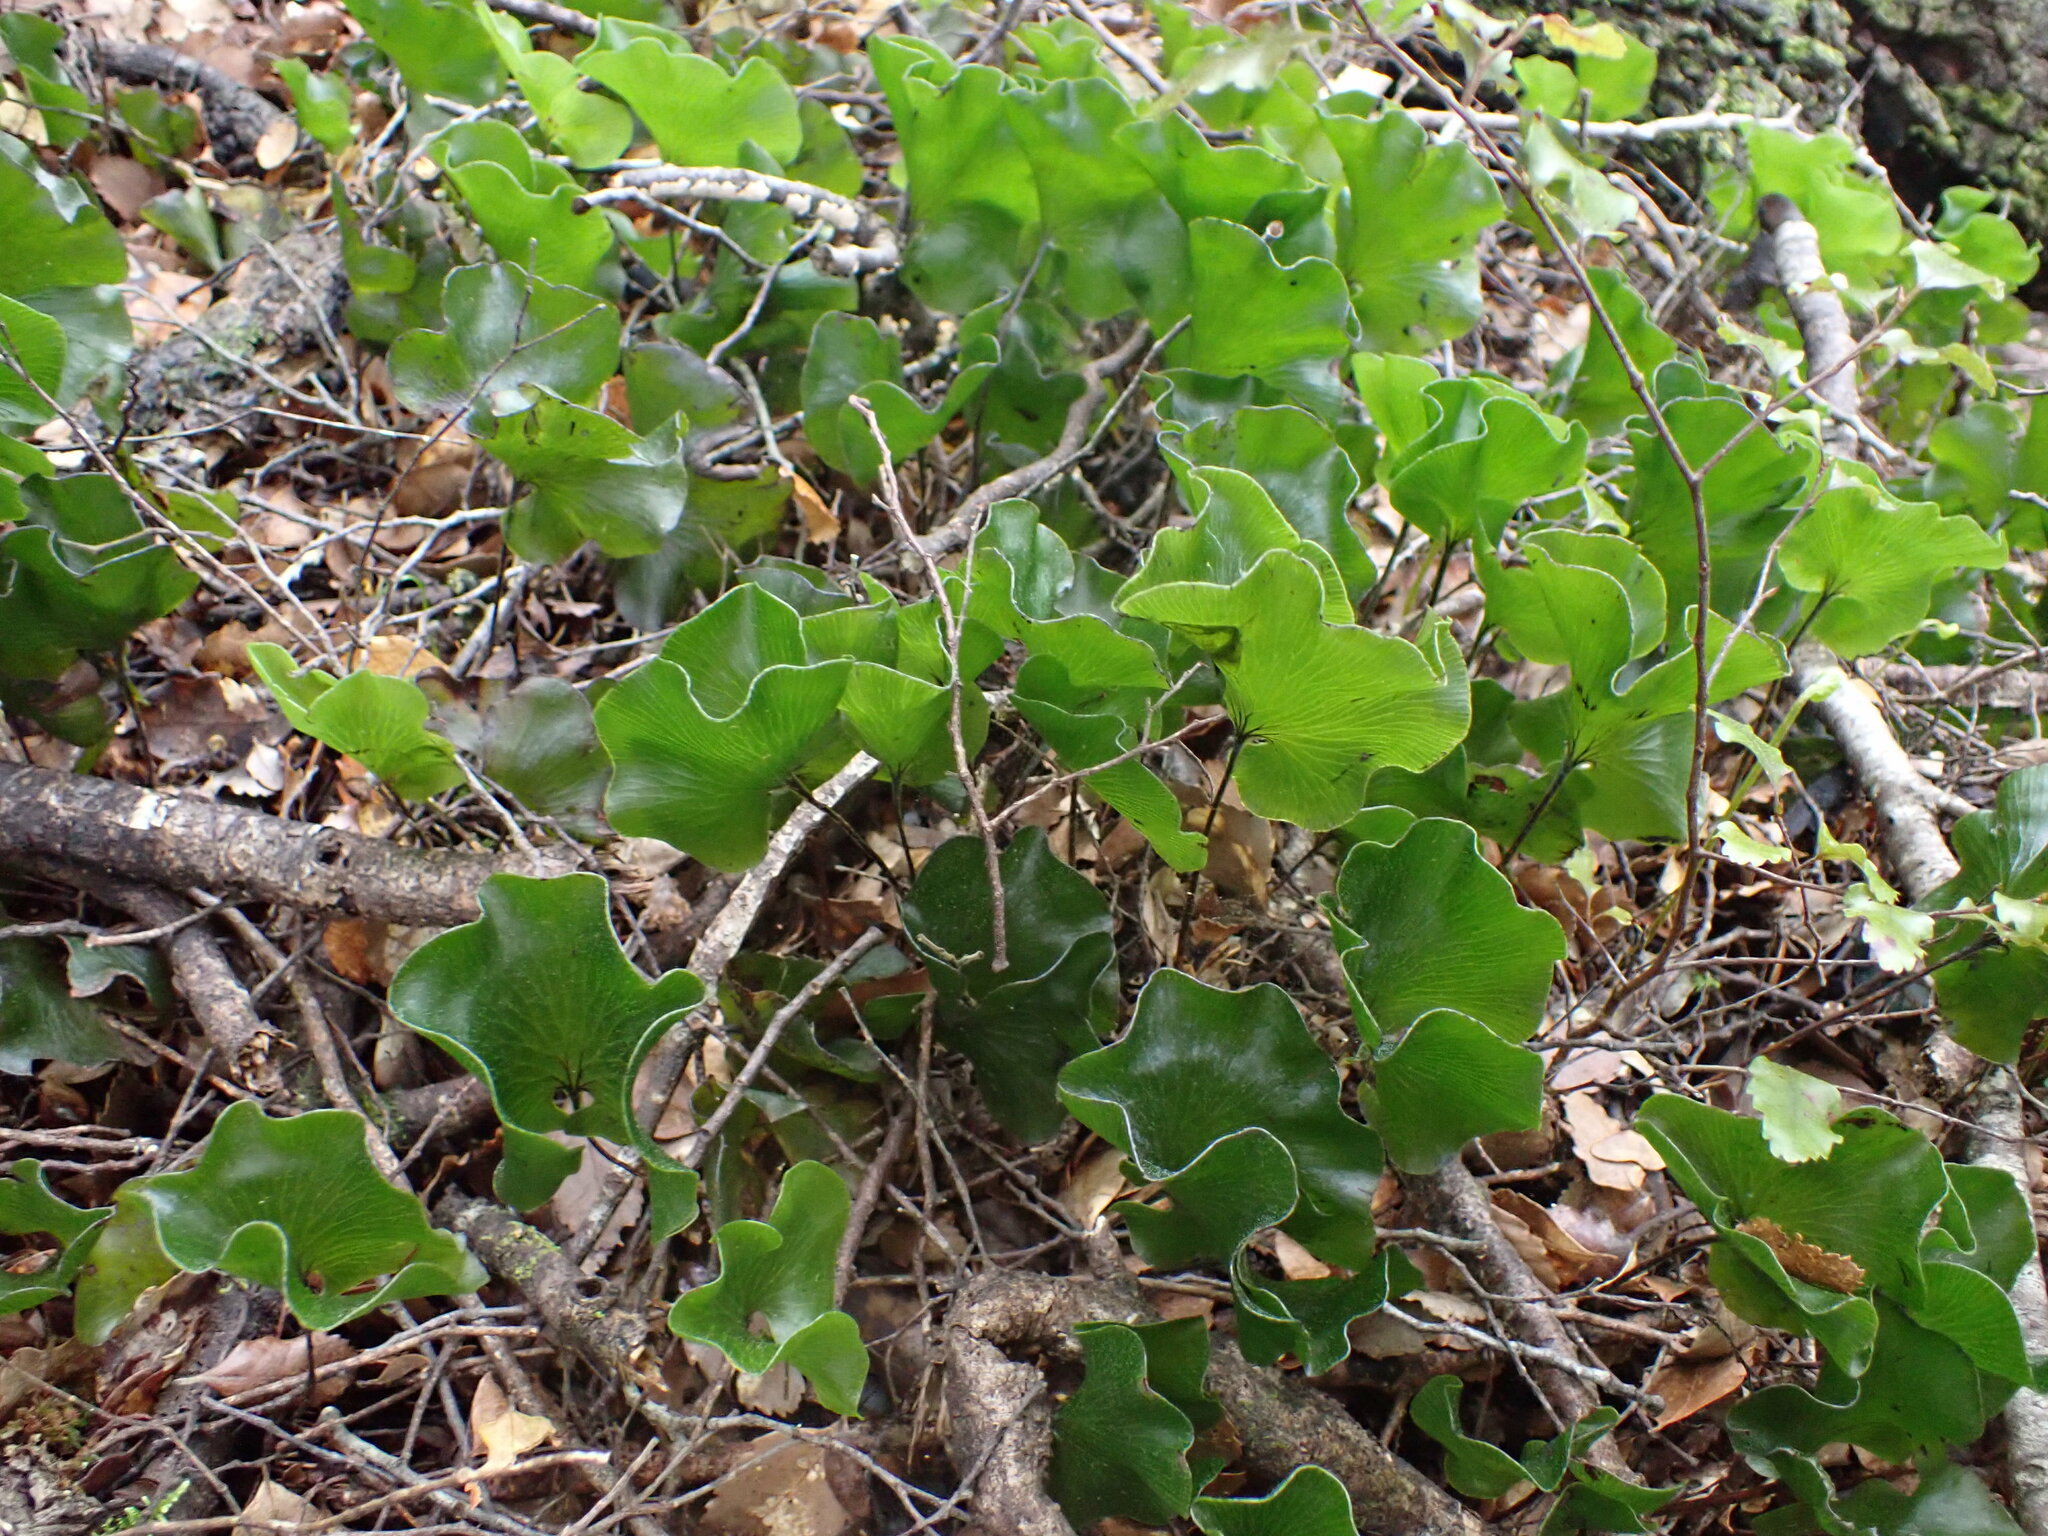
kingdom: Plantae
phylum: Tracheophyta
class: Polypodiopsida
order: Hymenophyllales
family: Hymenophyllaceae
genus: Hymenophyllum
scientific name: Hymenophyllum nephrophyllum
